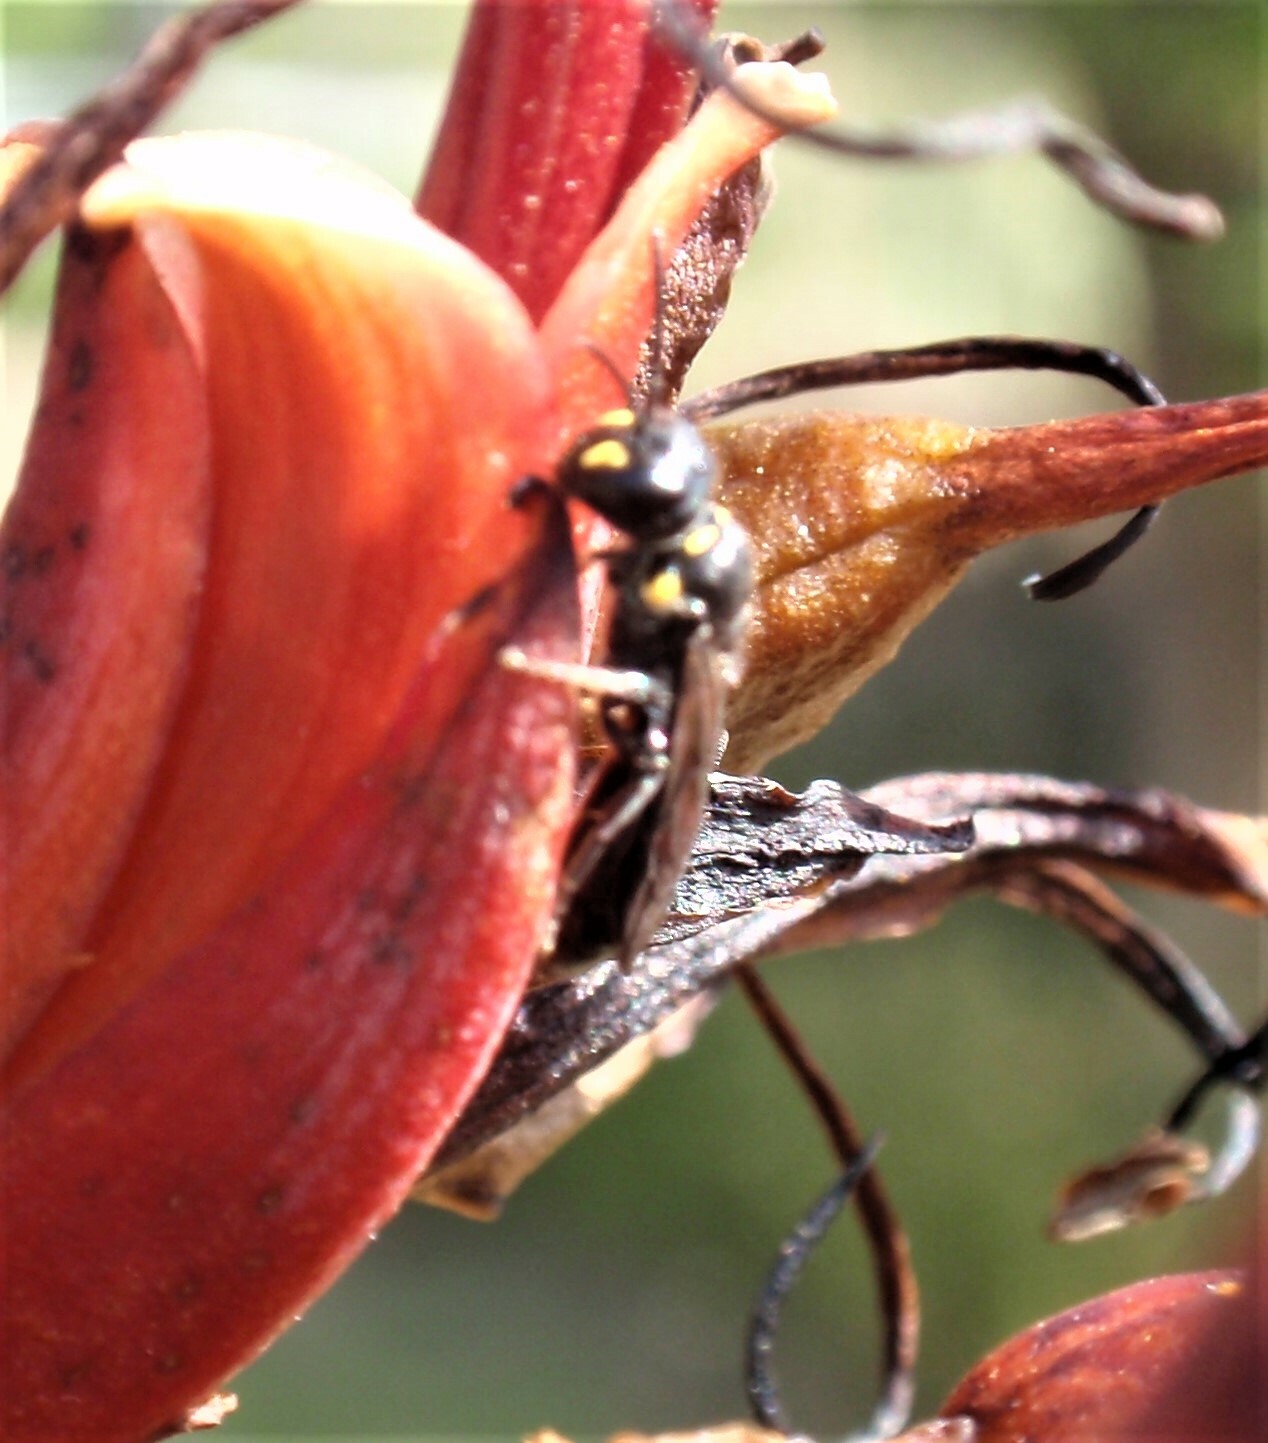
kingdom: Animalia
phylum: Arthropoda
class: Insecta
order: Hymenoptera
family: Colletidae
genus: Hylaeus
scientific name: Hylaeus agilis
